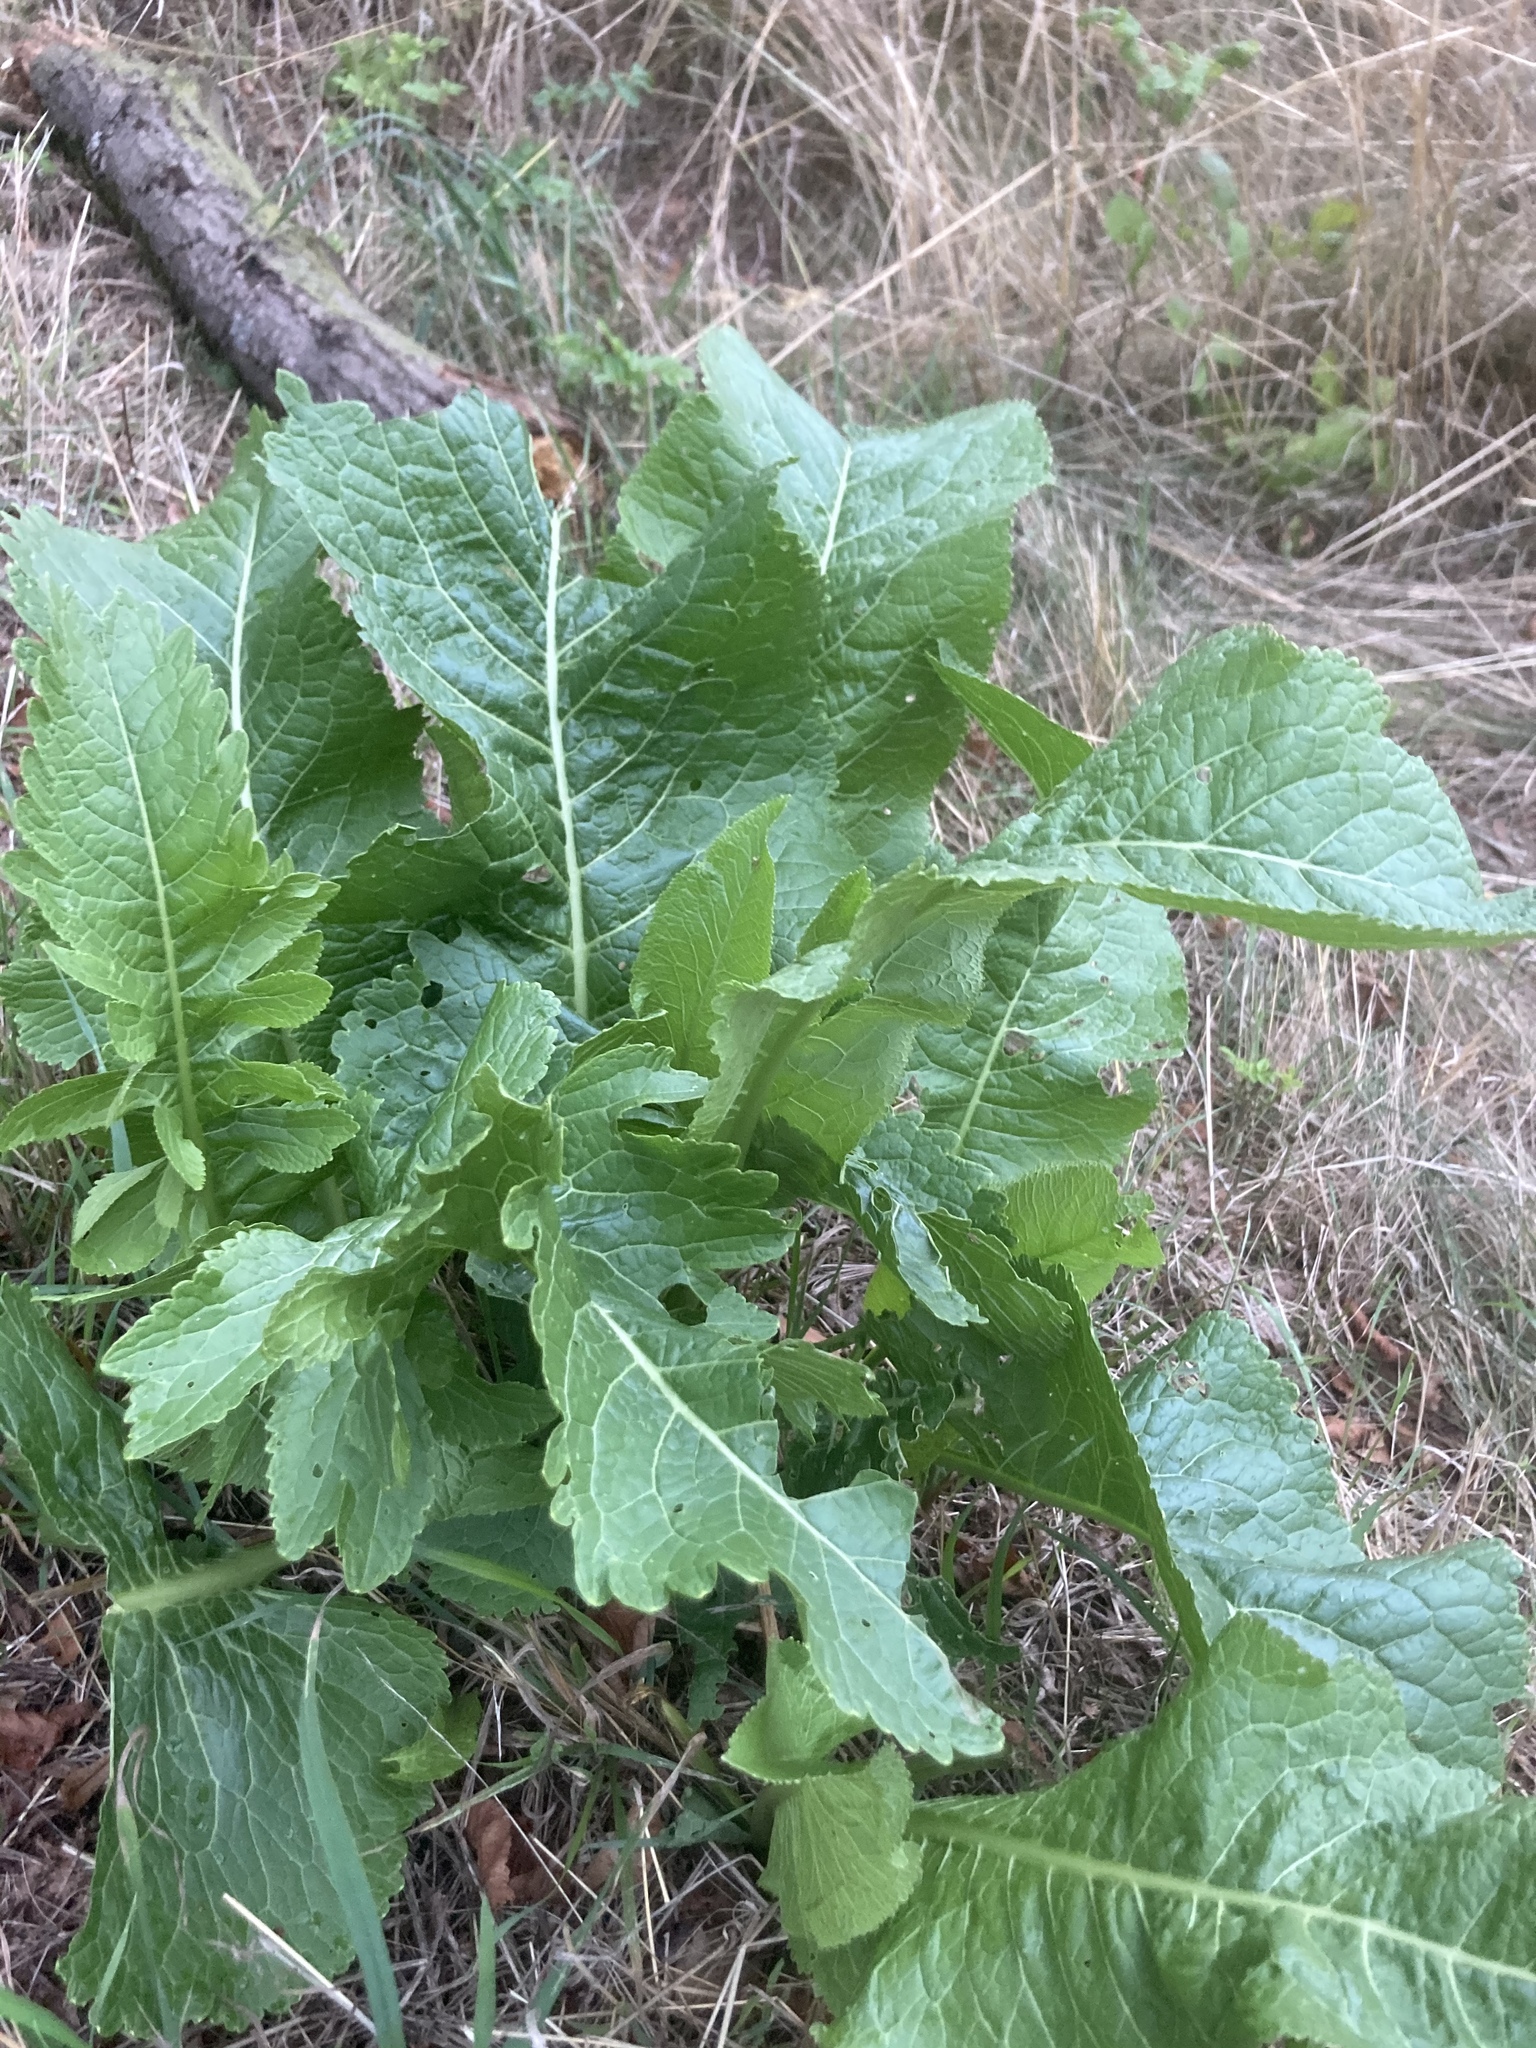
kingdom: Plantae
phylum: Tracheophyta
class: Magnoliopsida
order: Brassicales
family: Brassicaceae
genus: Armoracia
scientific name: Armoracia rusticana
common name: Horseradish
